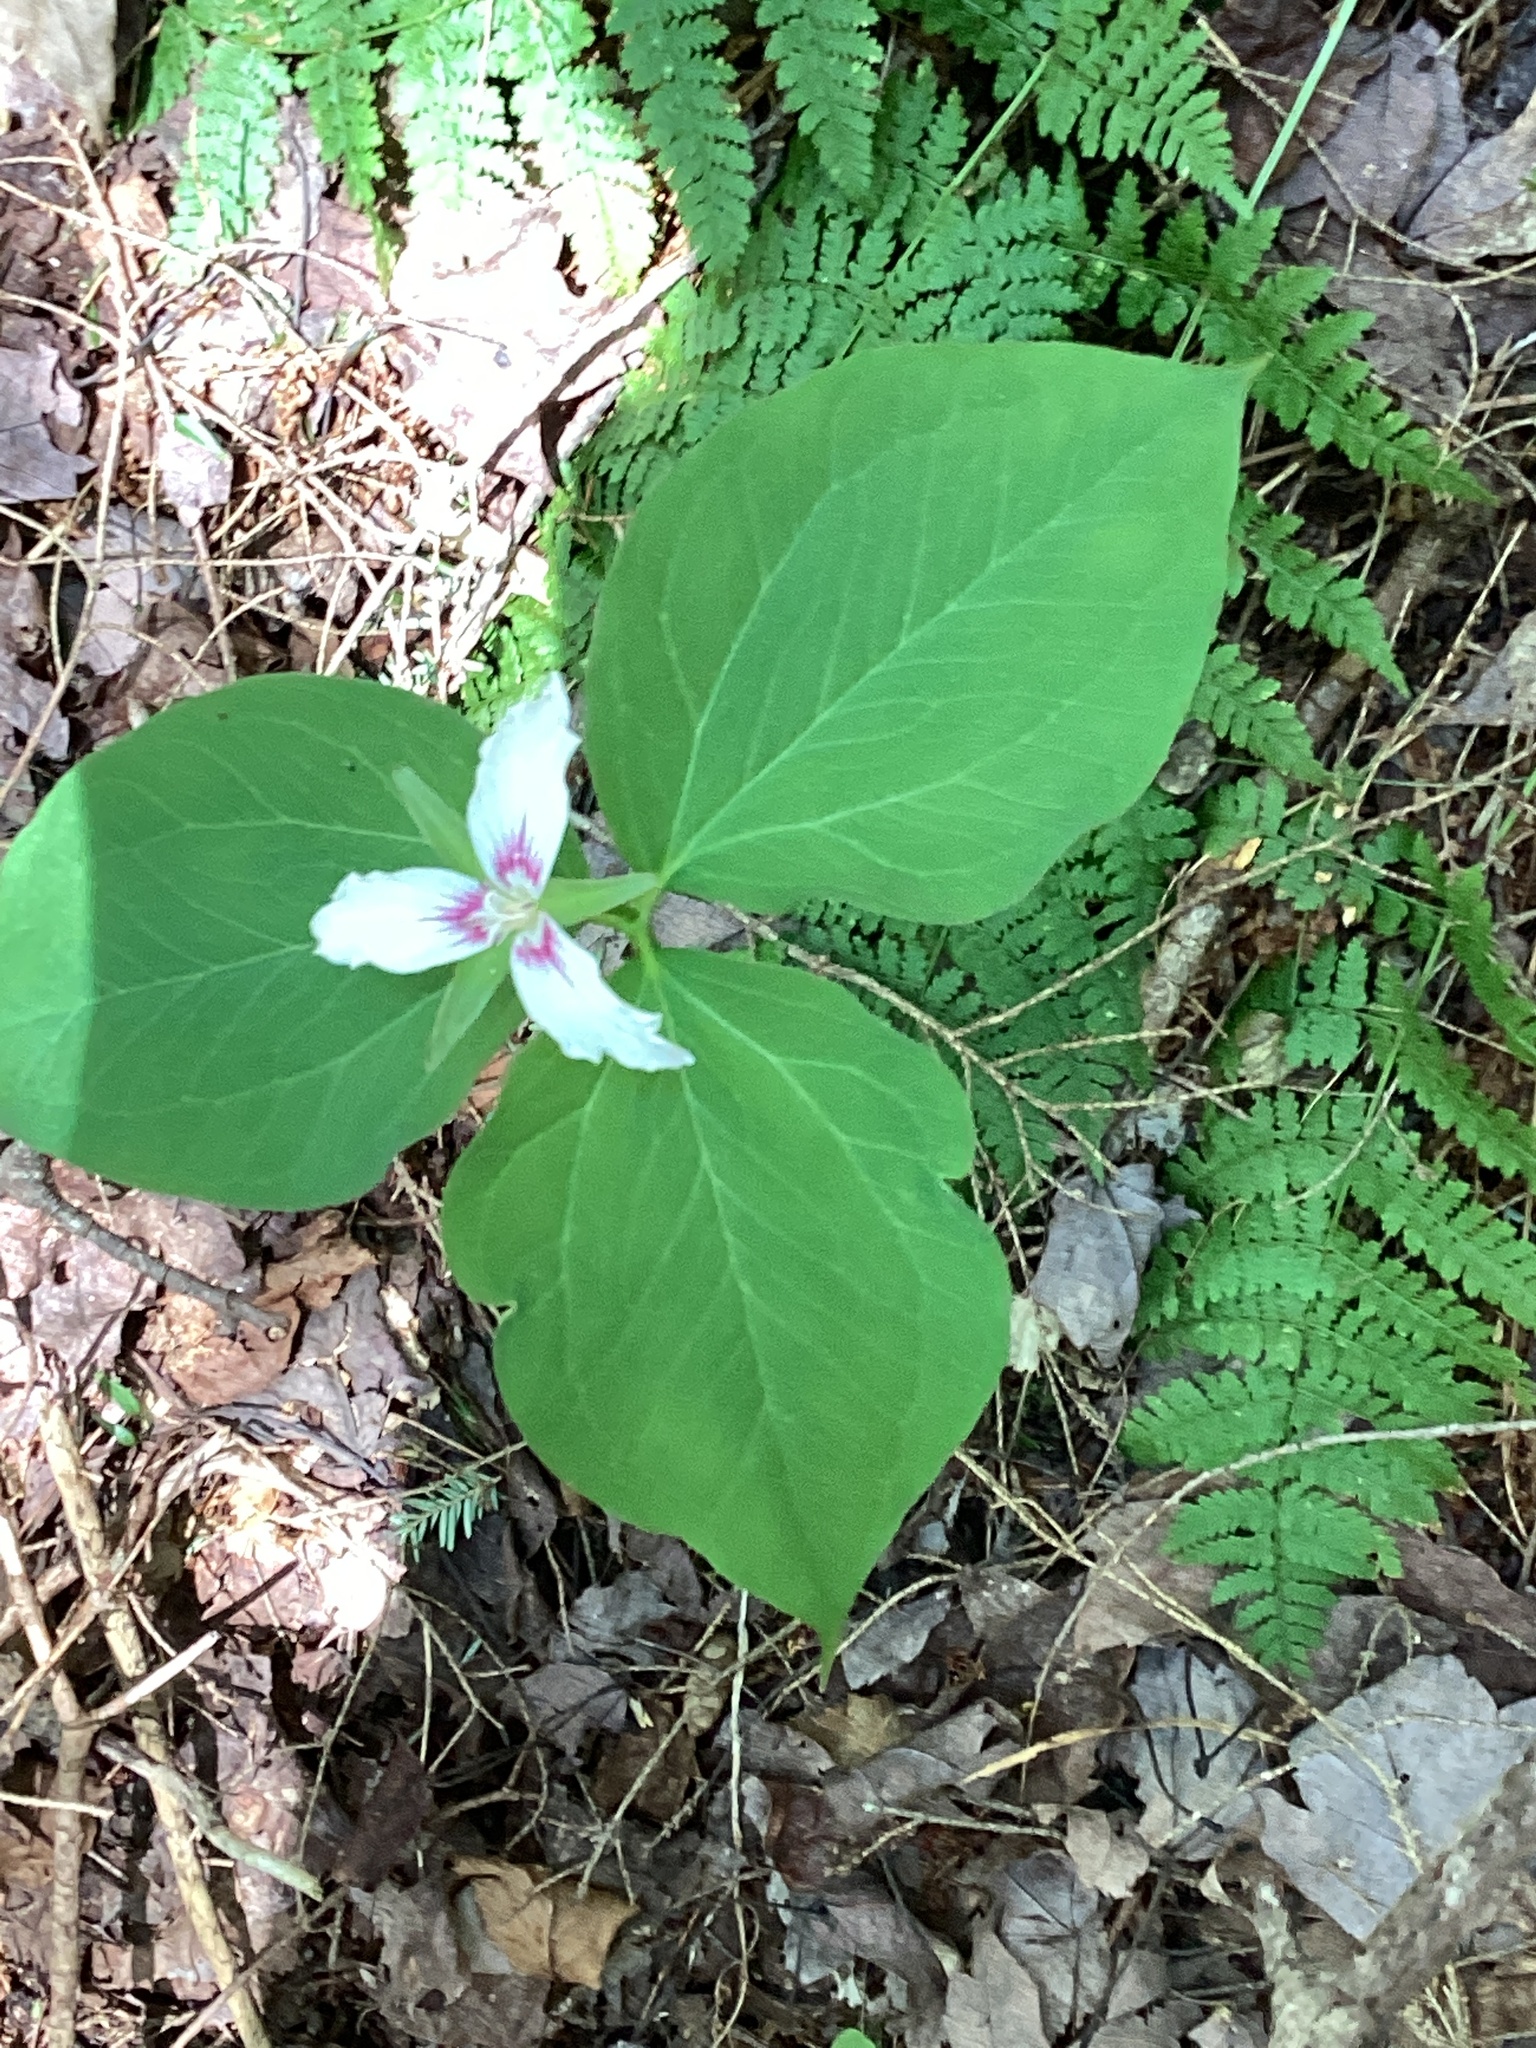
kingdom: Plantae
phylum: Tracheophyta
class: Liliopsida
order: Liliales
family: Melanthiaceae
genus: Trillium
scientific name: Trillium undulatum
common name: Paint trillium
